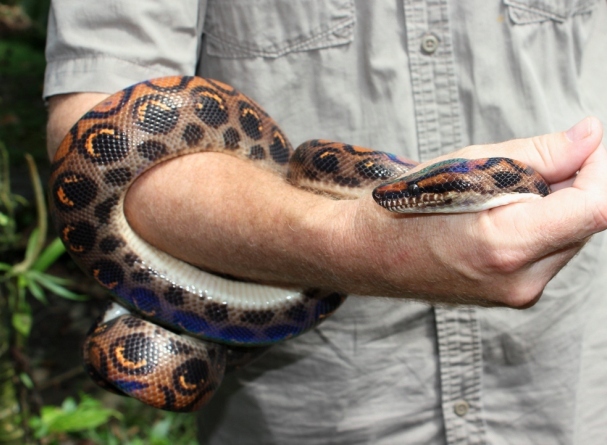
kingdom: Animalia
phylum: Chordata
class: Squamata
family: Boidae
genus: Epicrates
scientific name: Epicrates cenchria
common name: Rainbow boa
